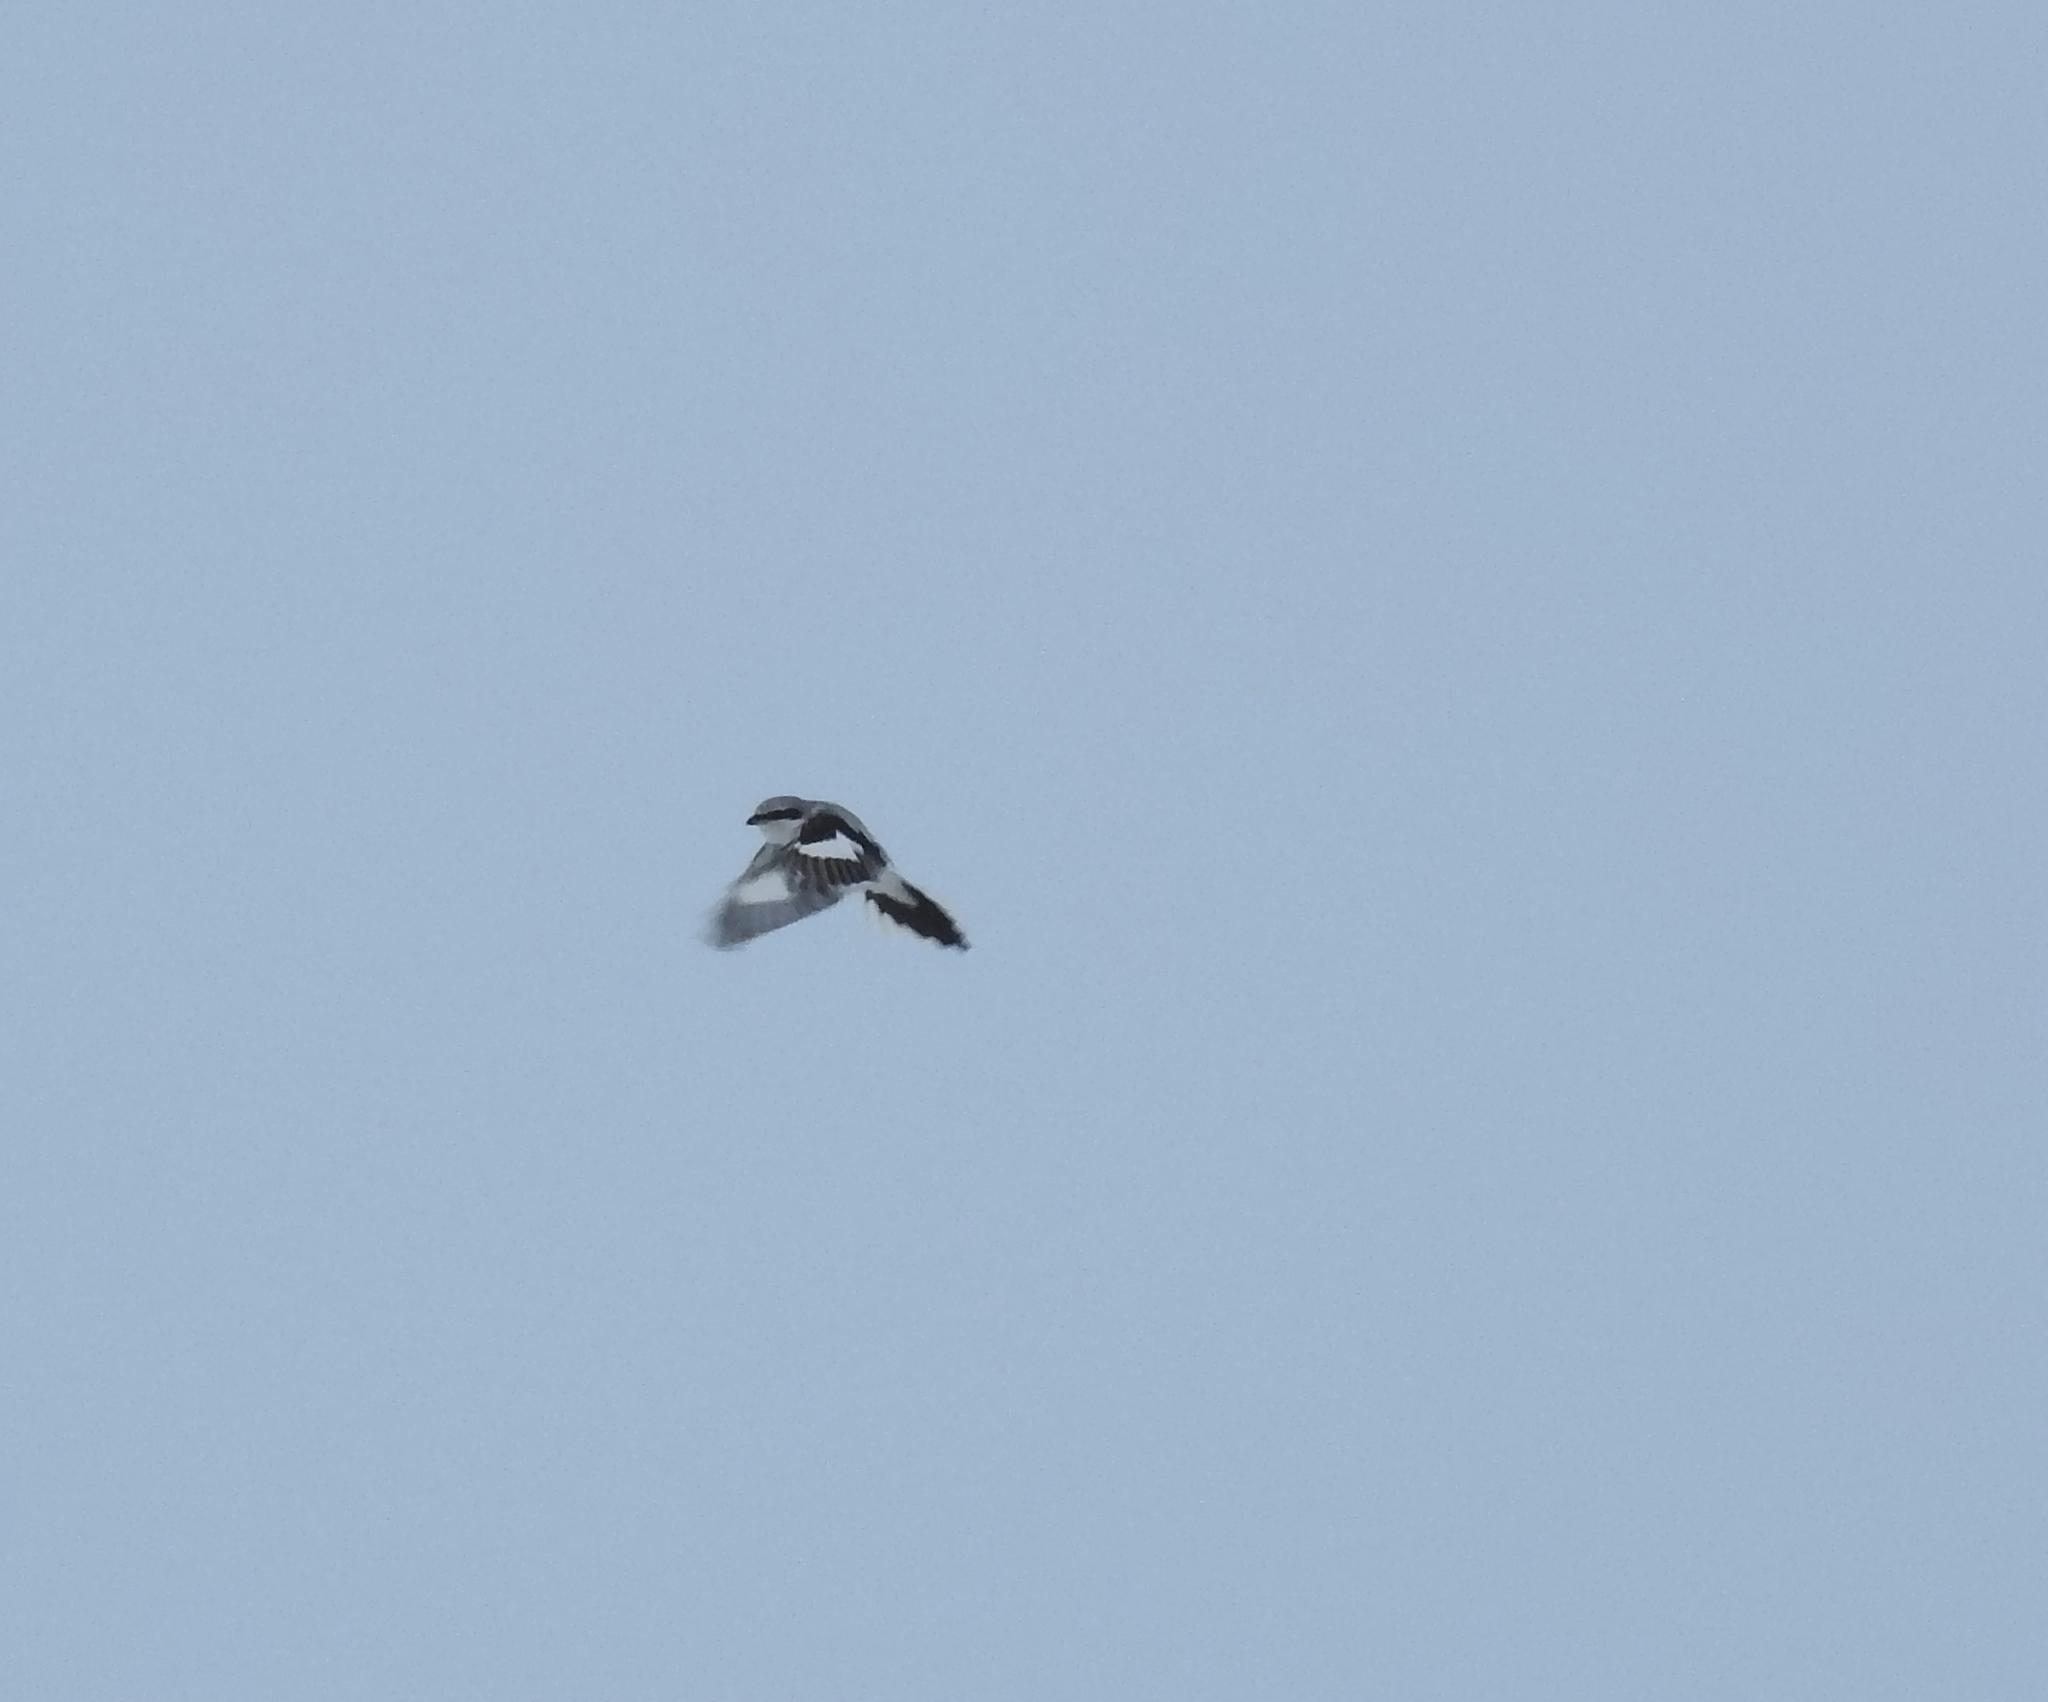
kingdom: Animalia
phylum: Chordata
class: Aves
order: Passeriformes
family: Laniidae
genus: Lanius
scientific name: Lanius excubitor
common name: Great grey shrike
